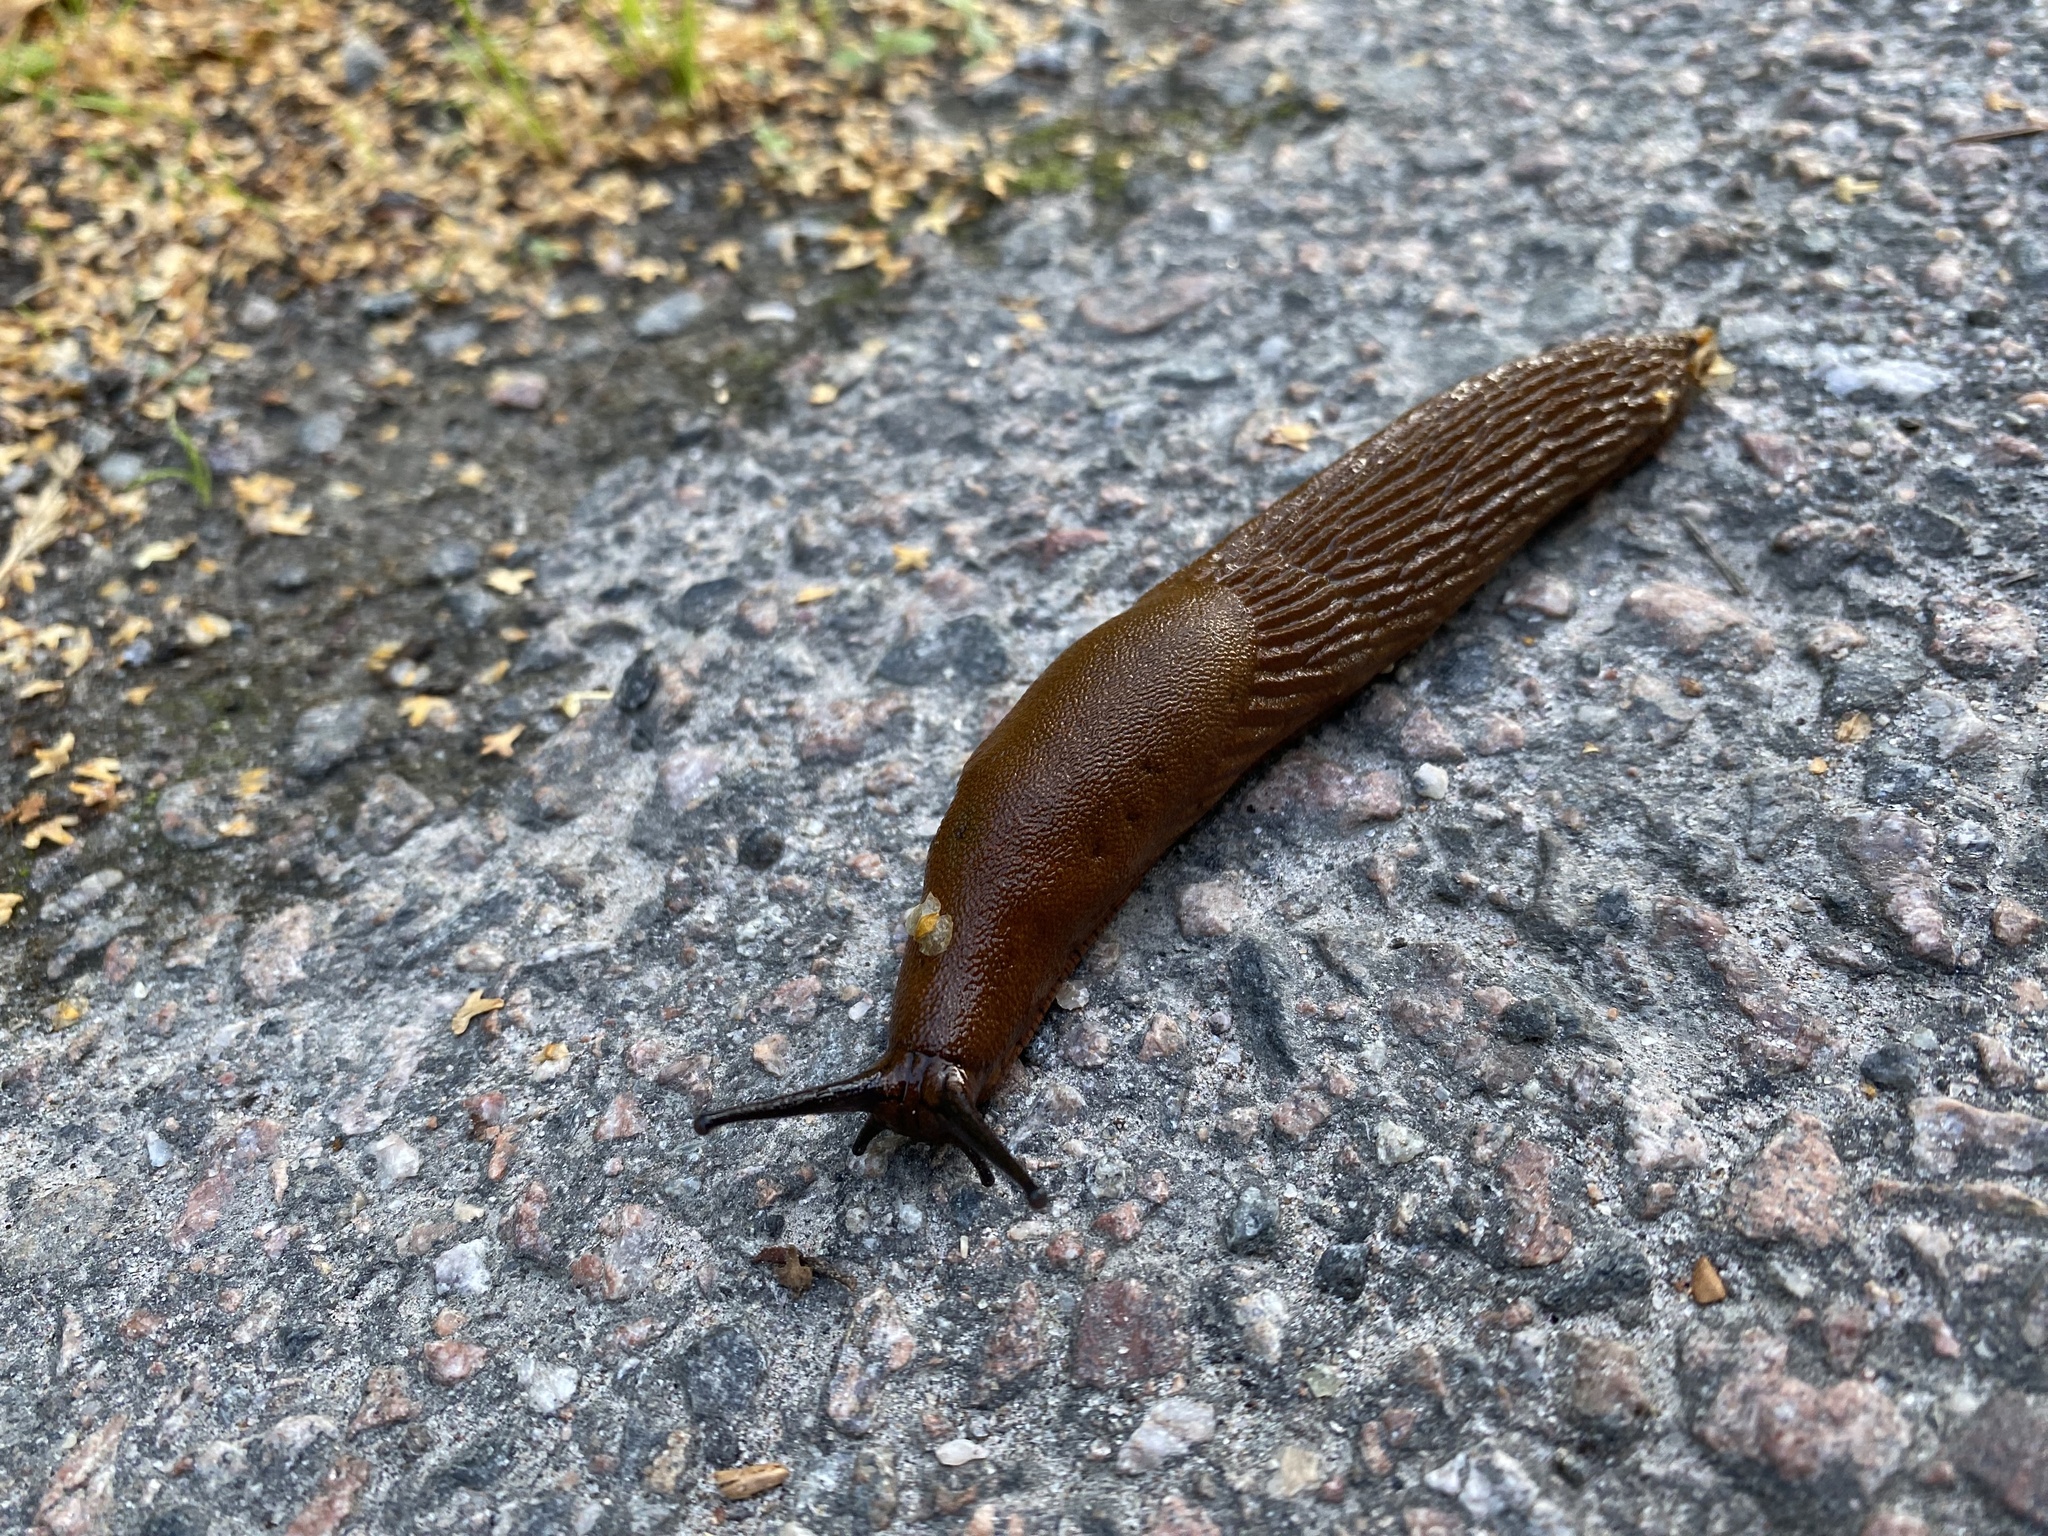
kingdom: Animalia
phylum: Mollusca
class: Gastropoda
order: Stylommatophora
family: Arionidae
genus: Arion
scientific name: Arion vulgaris
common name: Lusitanian slug
